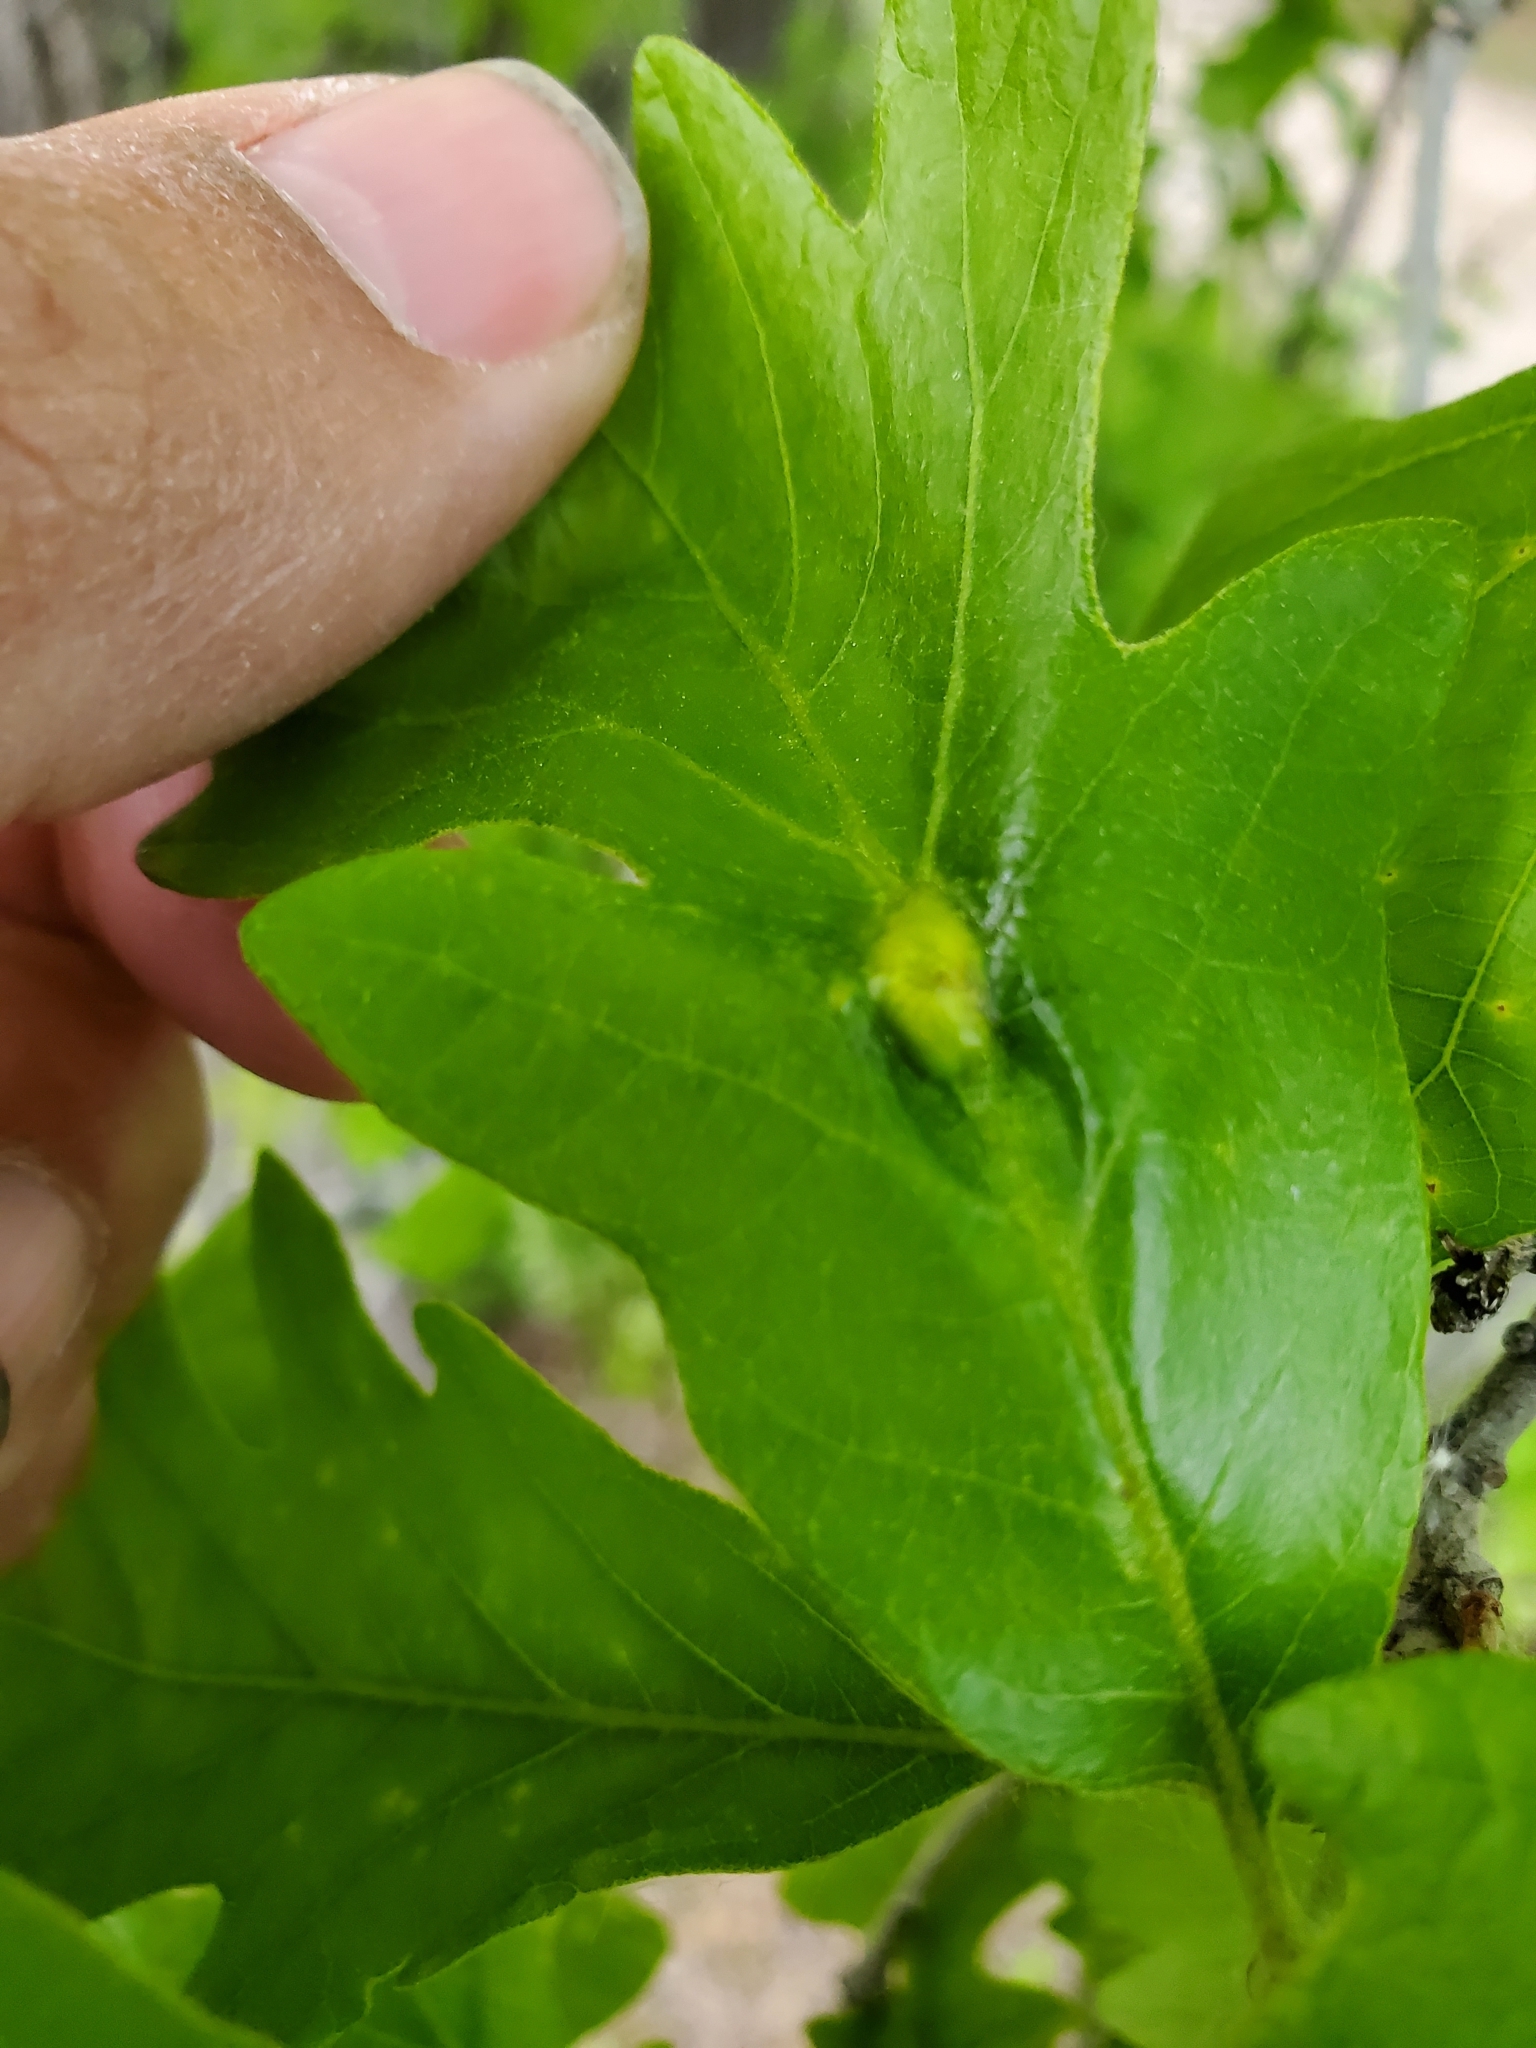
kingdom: Animalia
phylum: Arthropoda
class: Insecta
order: Hymenoptera
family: Cynipidae
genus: Bassettia
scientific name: Bassettia flavipes
